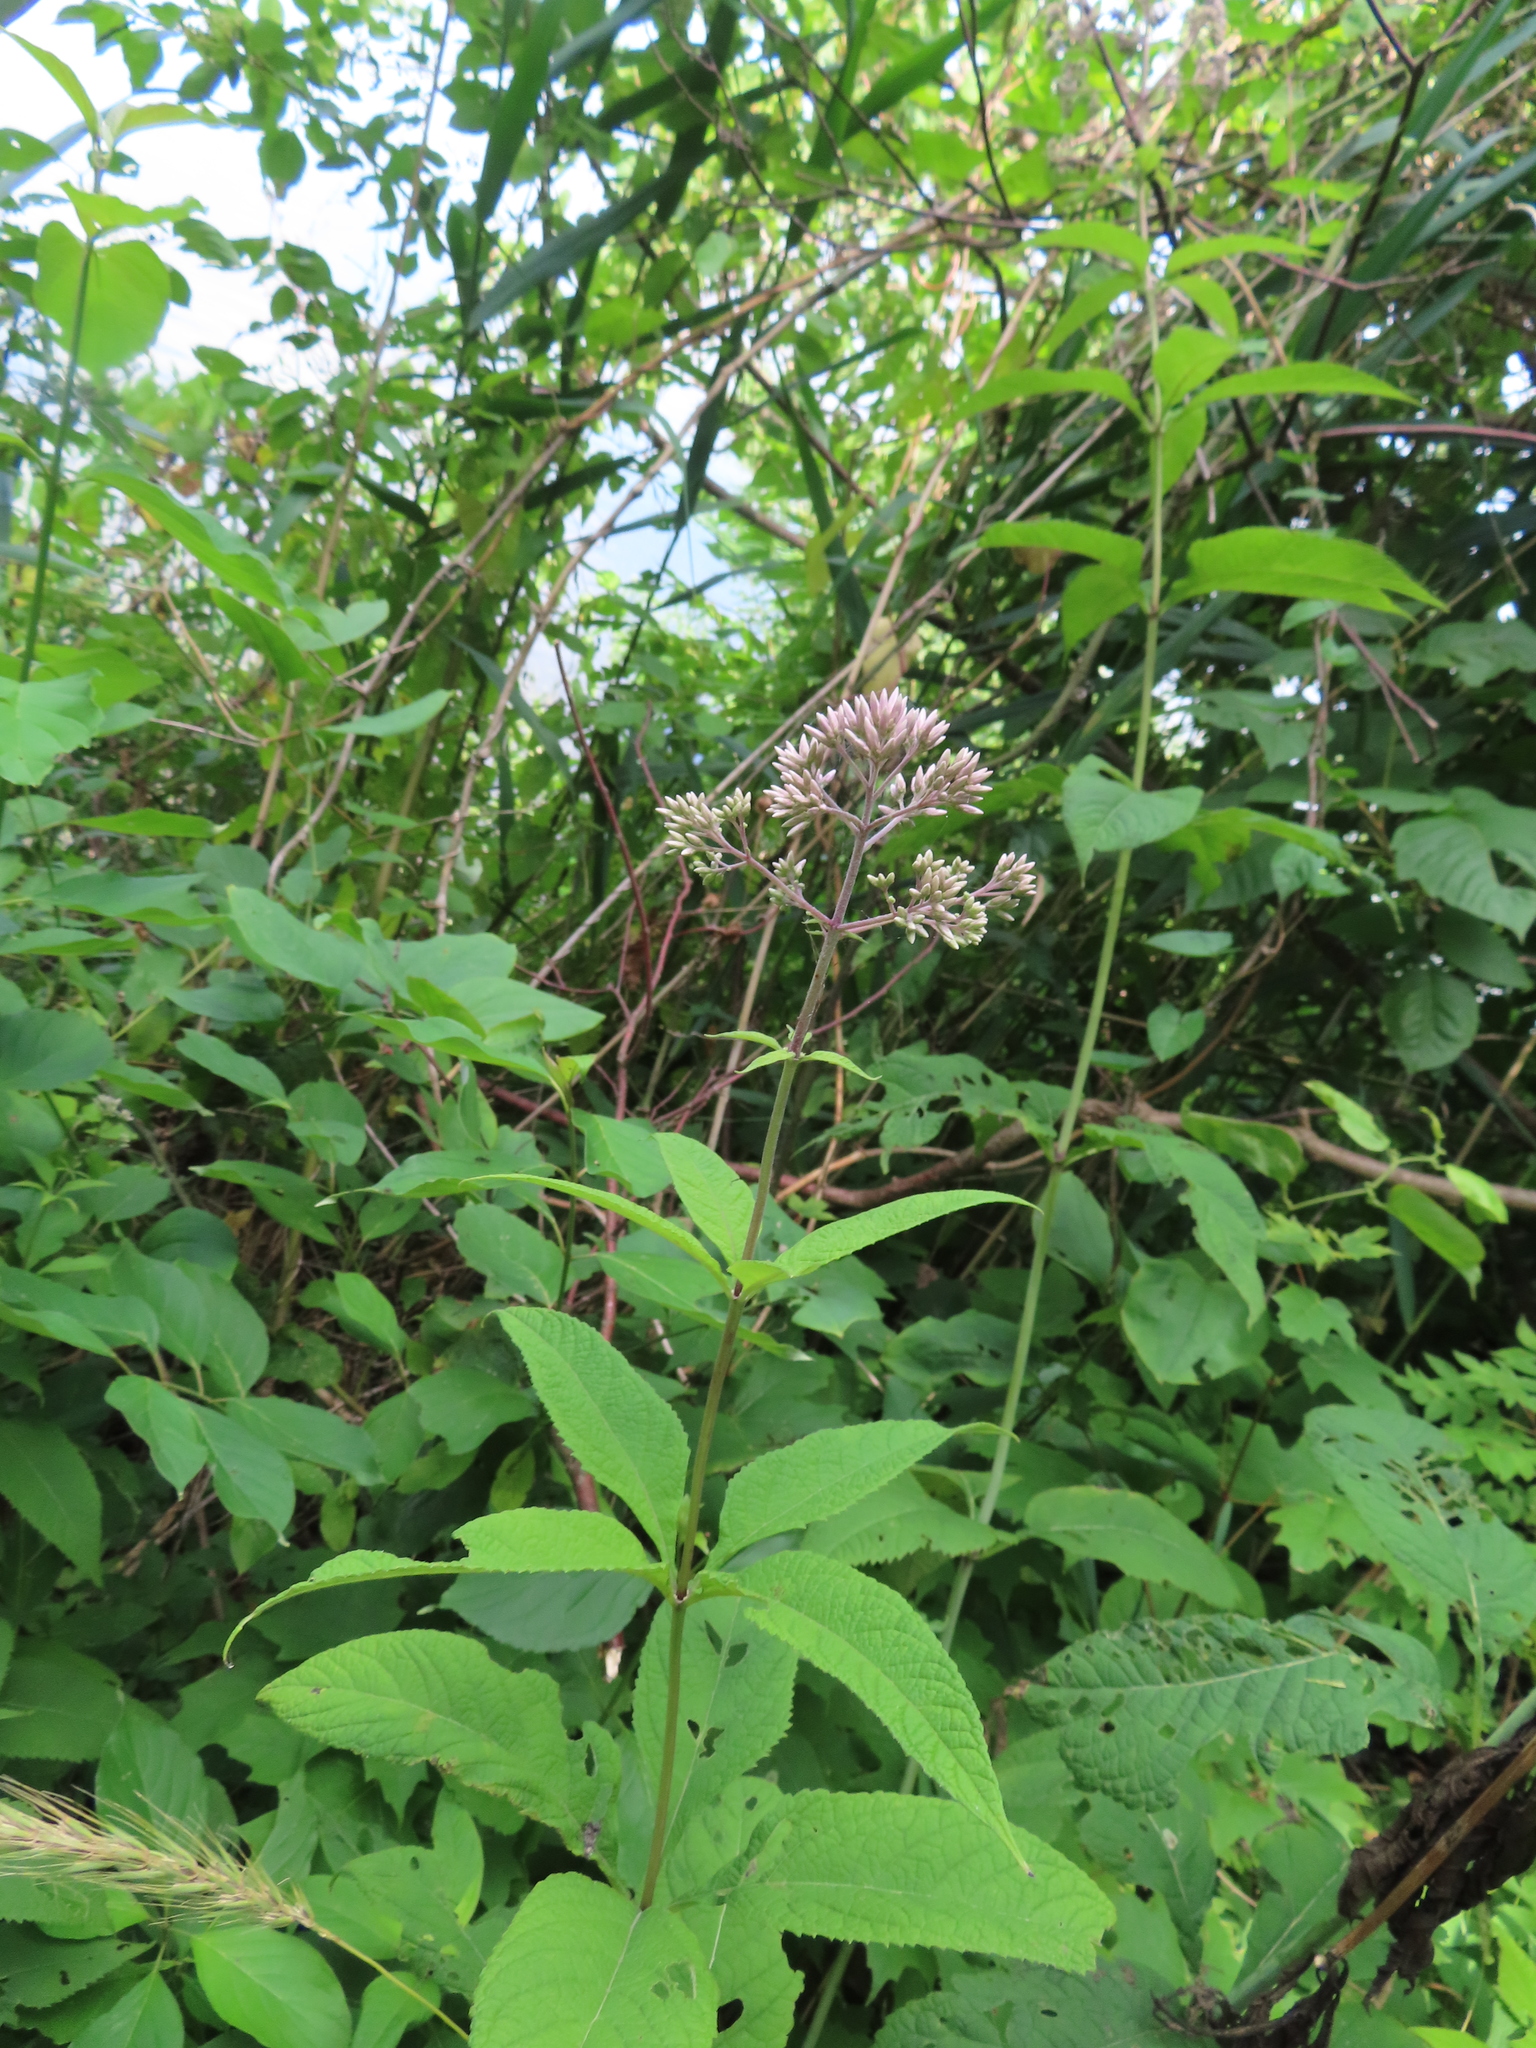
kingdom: Plantae
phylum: Tracheophyta
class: Magnoliopsida
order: Asterales
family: Asteraceae
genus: Eutrochium
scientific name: Eutrochium purpureum
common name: Gravelroot
